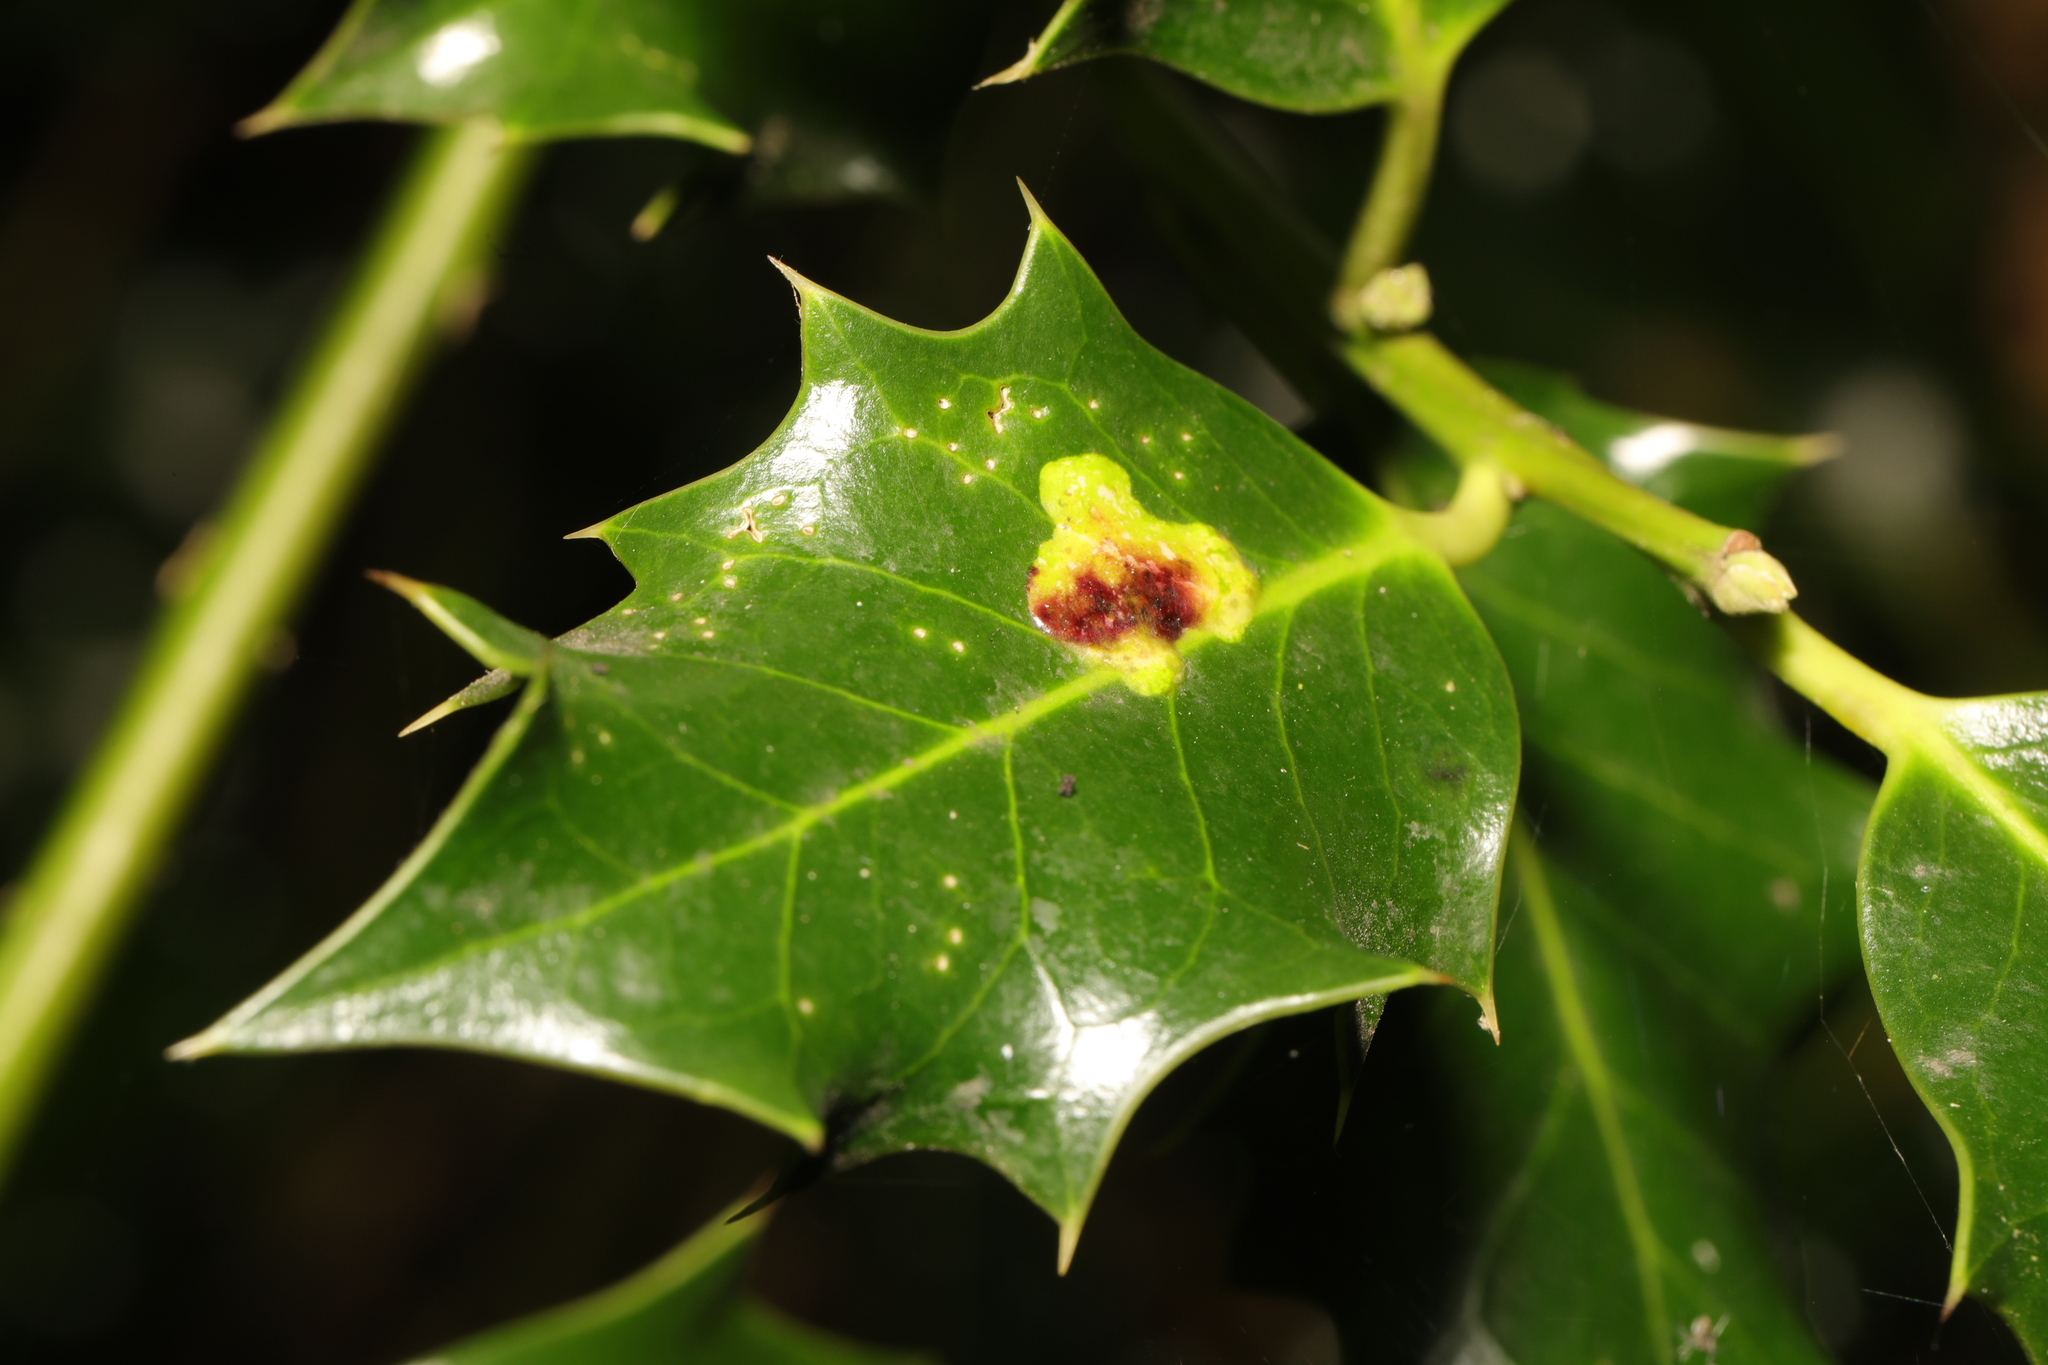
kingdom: Animalia
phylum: Arthropoda
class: Insecta
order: Diptera
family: Agromyzidae
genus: Phytomyza
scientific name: Phytomyza ilicis
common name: Holly leafminer
